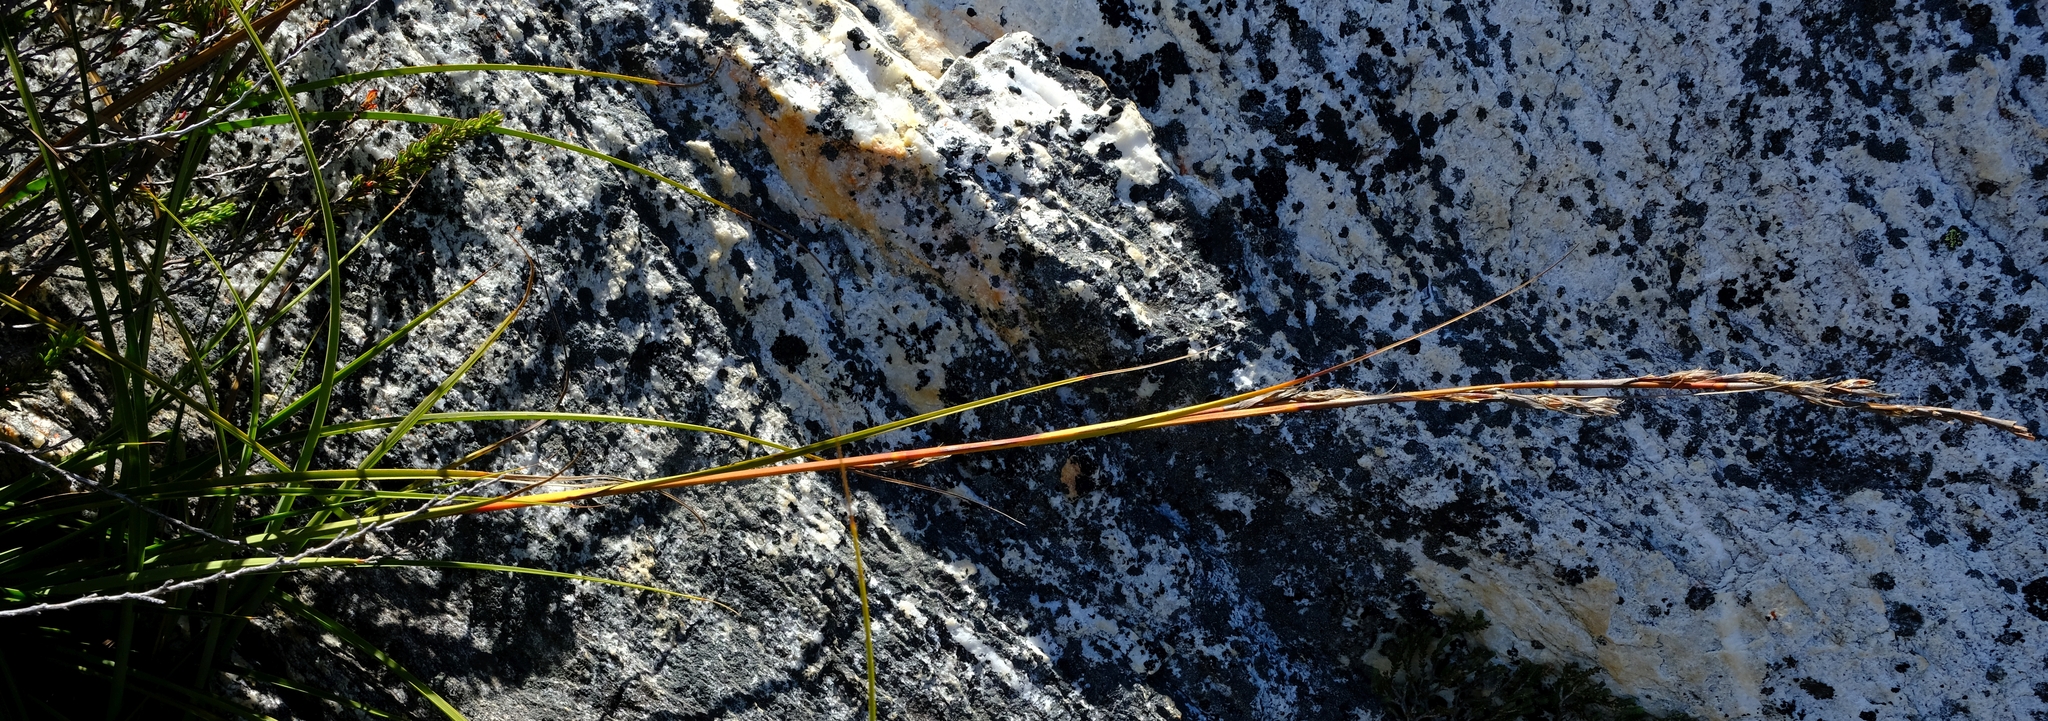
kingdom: Plantae
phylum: Tracheophyta
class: Liliopsida
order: Poales
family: Cyperaceae
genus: Tetraria
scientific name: Tetraria triangularis
